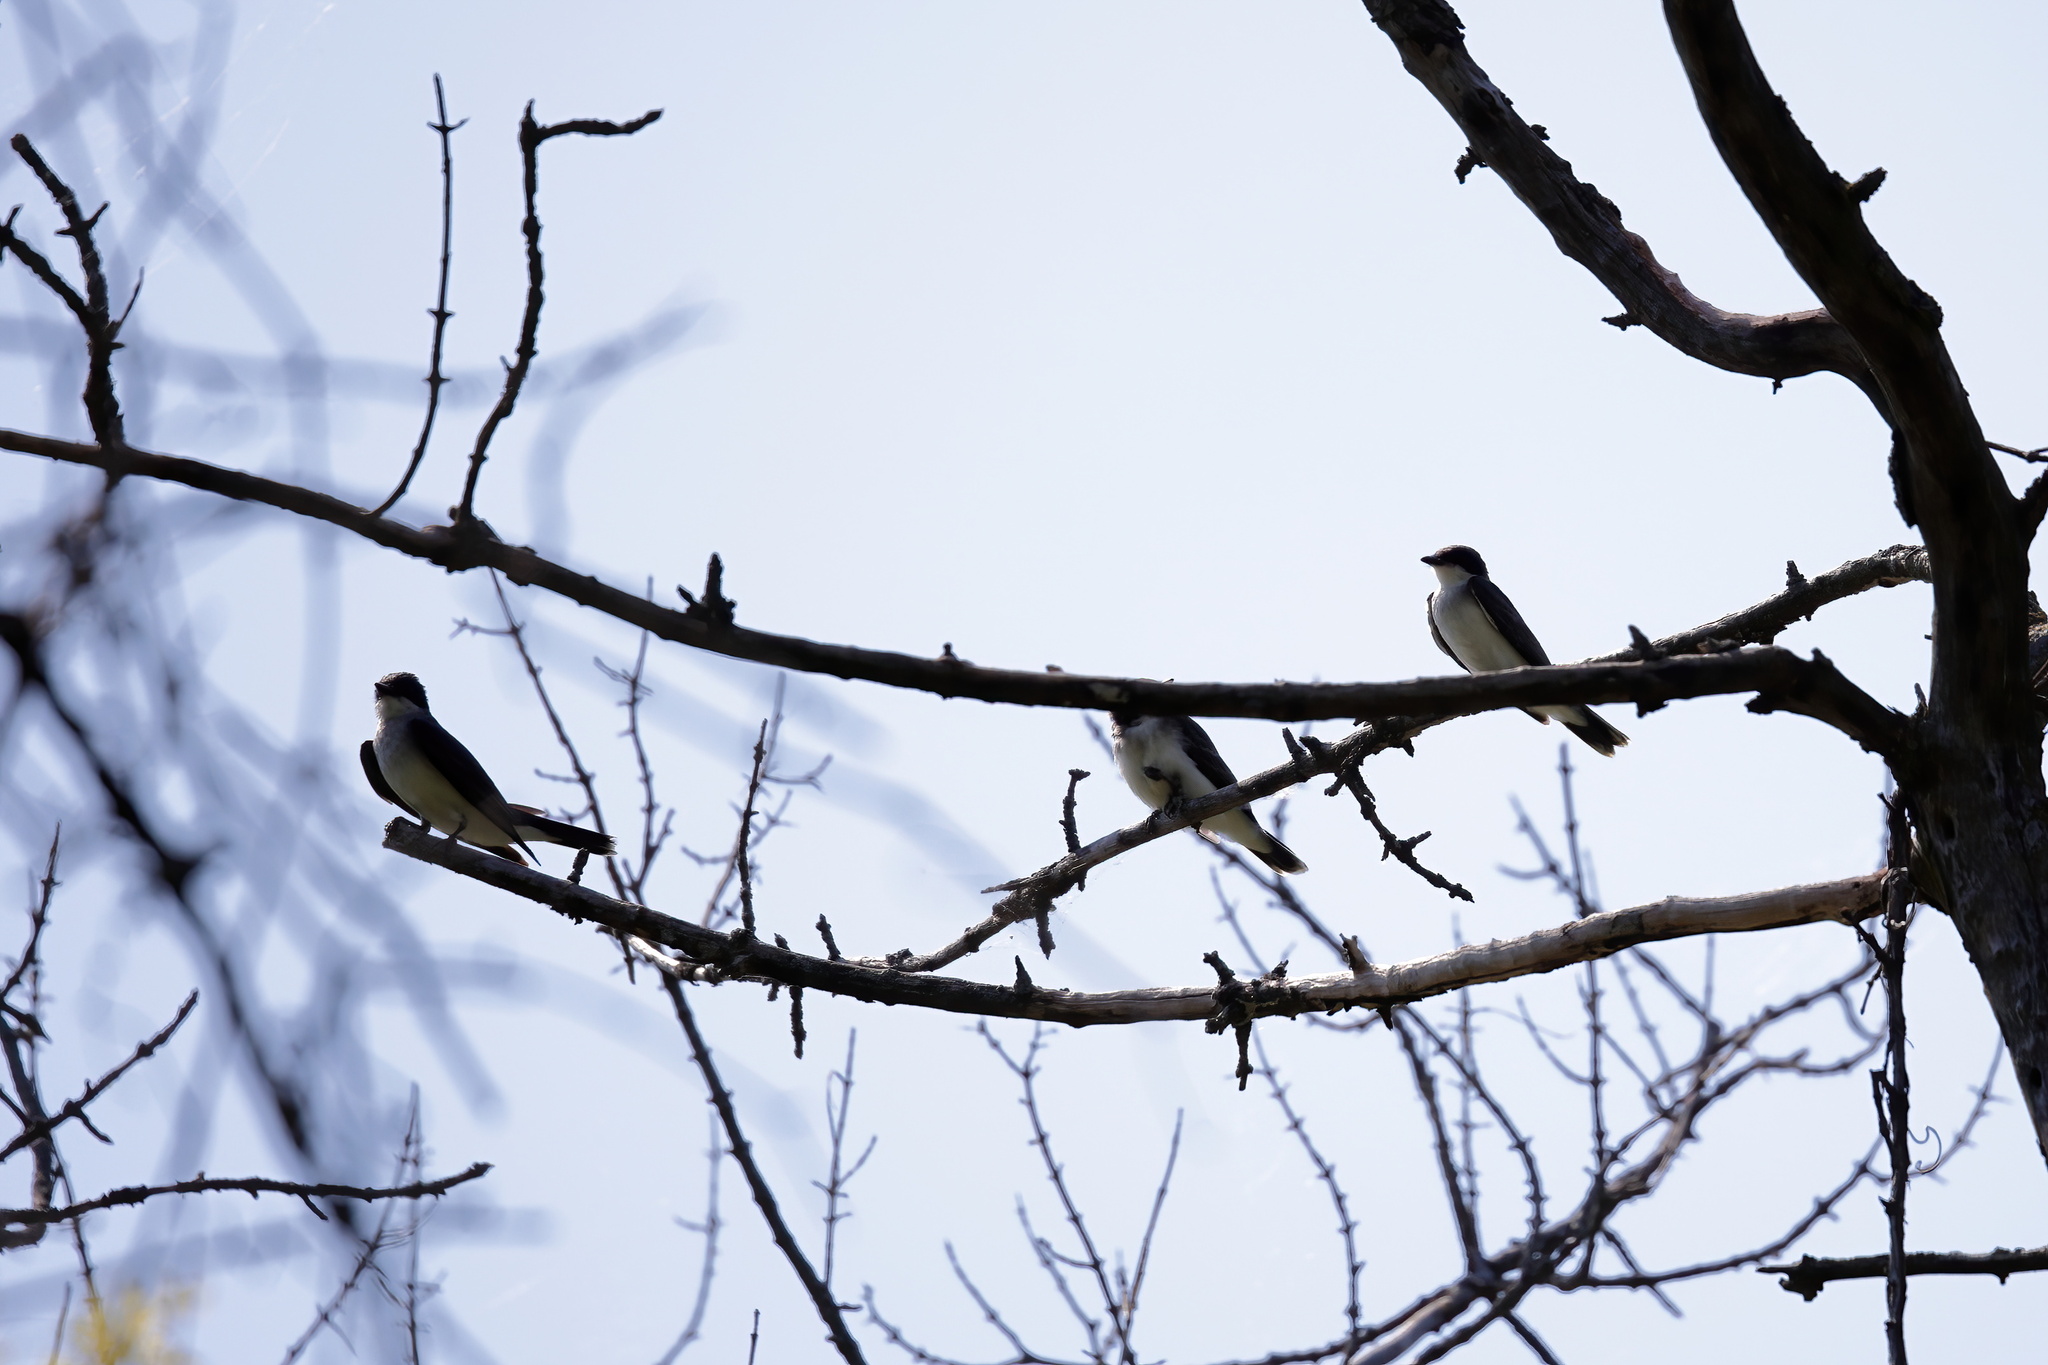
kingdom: Animalia
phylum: Chordata
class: Aves
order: Passeriformes
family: Hirundinidae
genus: Tachycineta
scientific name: Tachycineta bicolor
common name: Tree swallow
